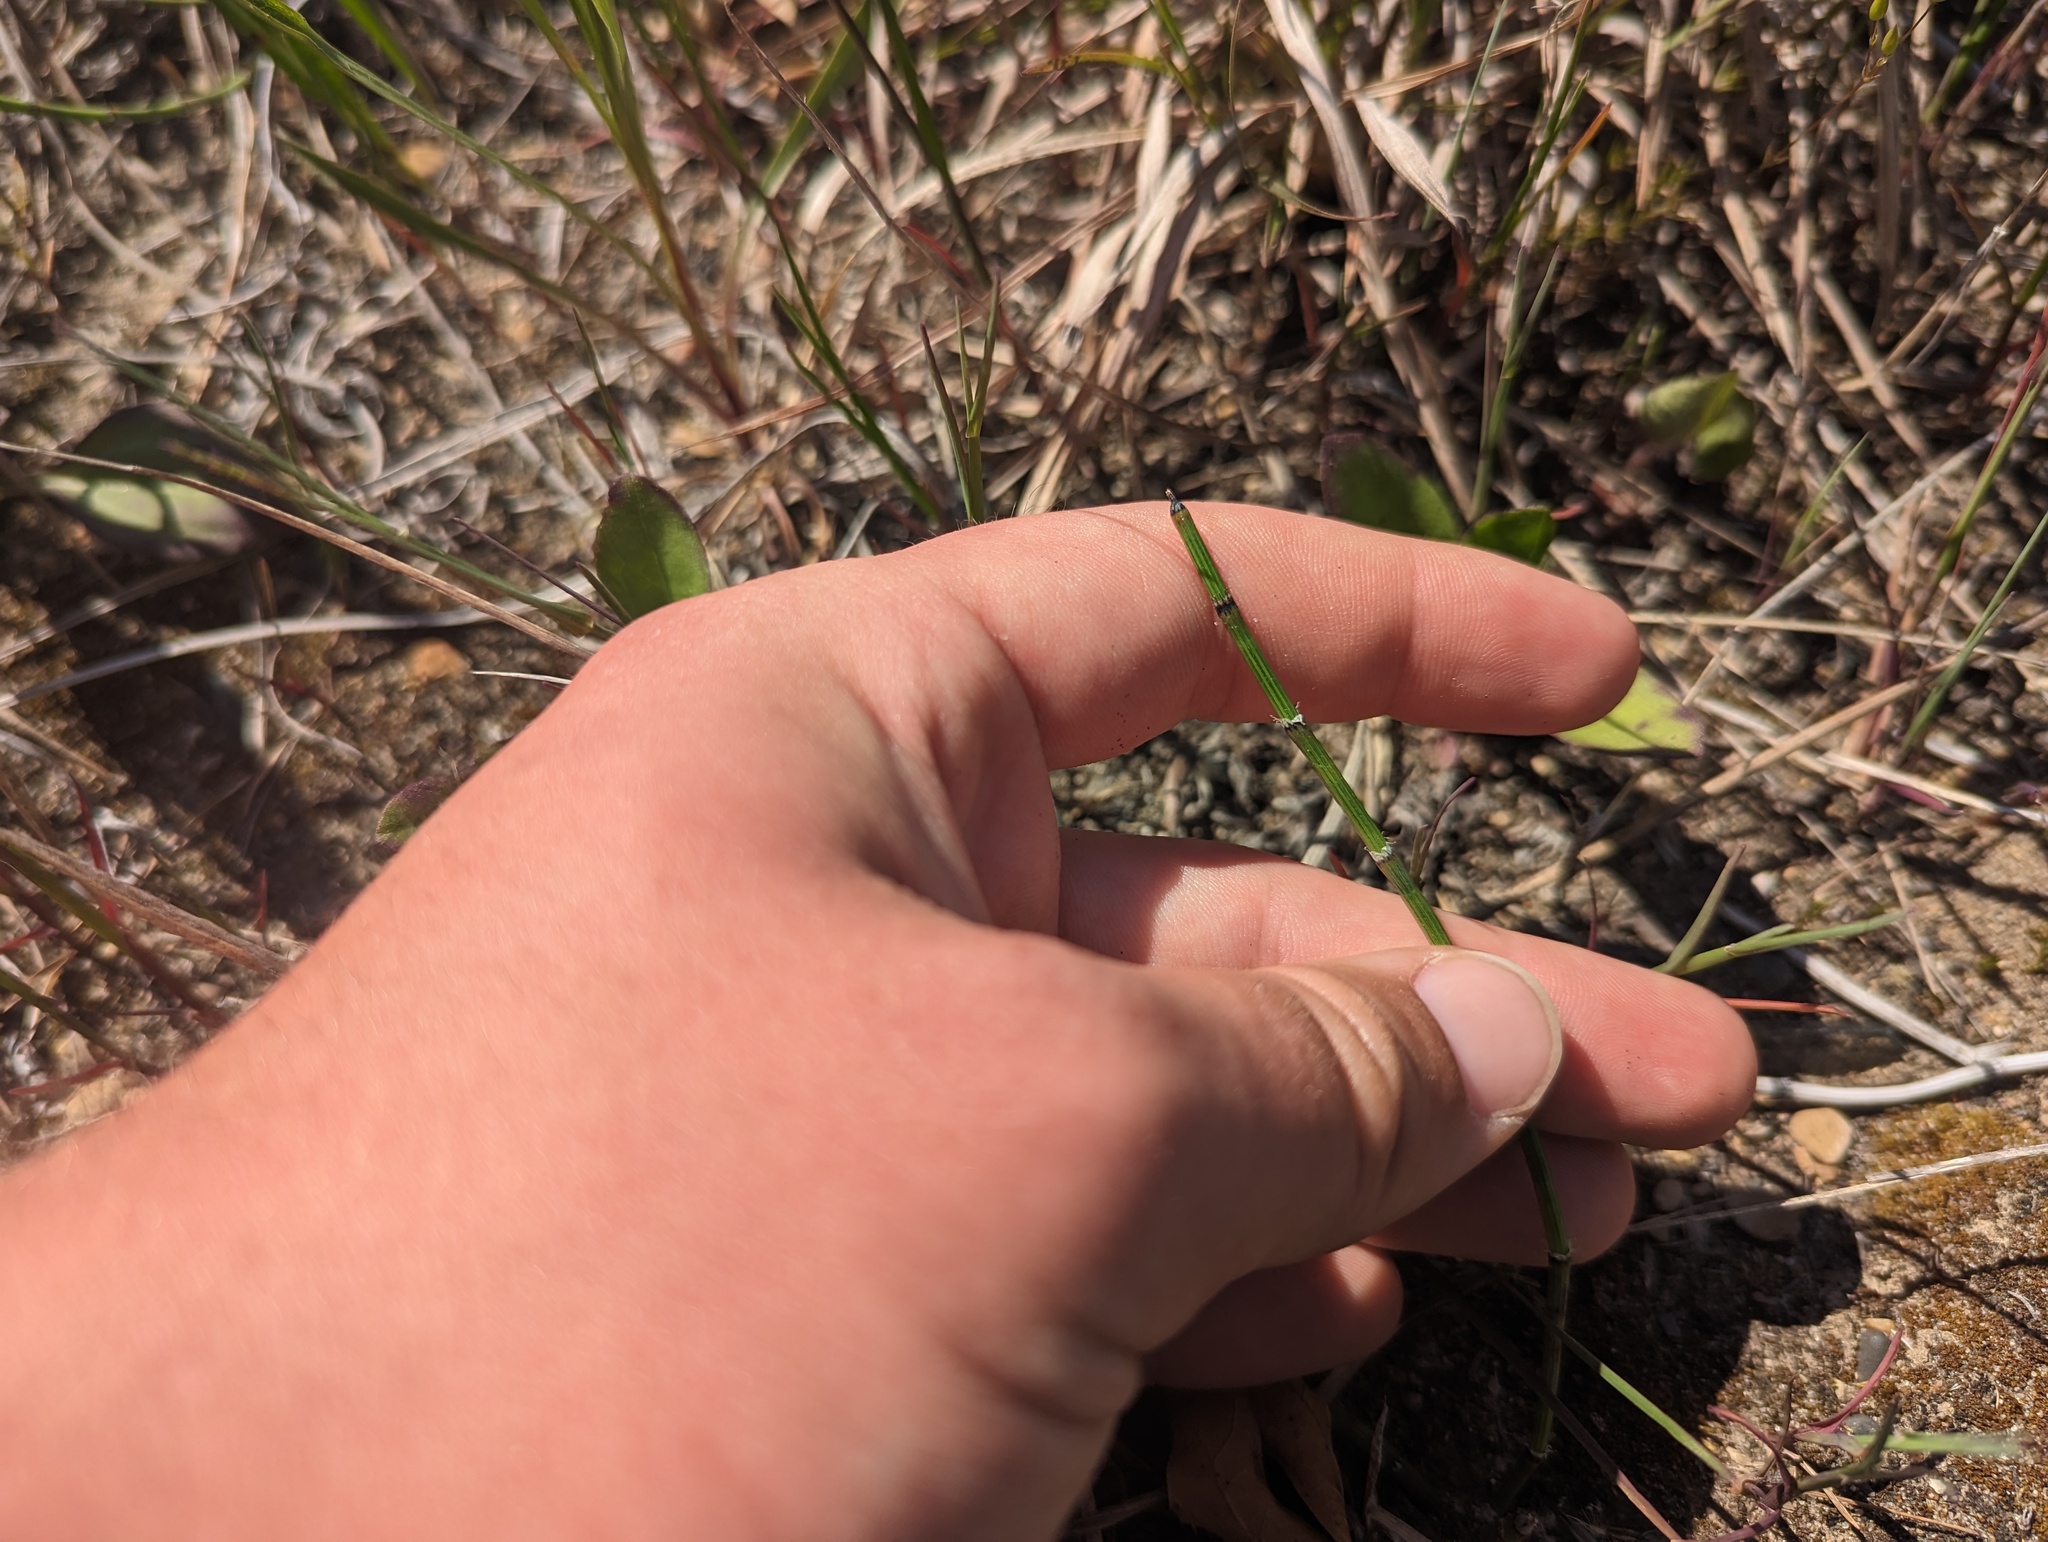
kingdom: Plantae
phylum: Tracheophyta
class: Polypodiopsida
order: Equisetales
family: Equisetaceae
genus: Equisetum
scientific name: Equisetum variegatum
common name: Variegated horsetail
